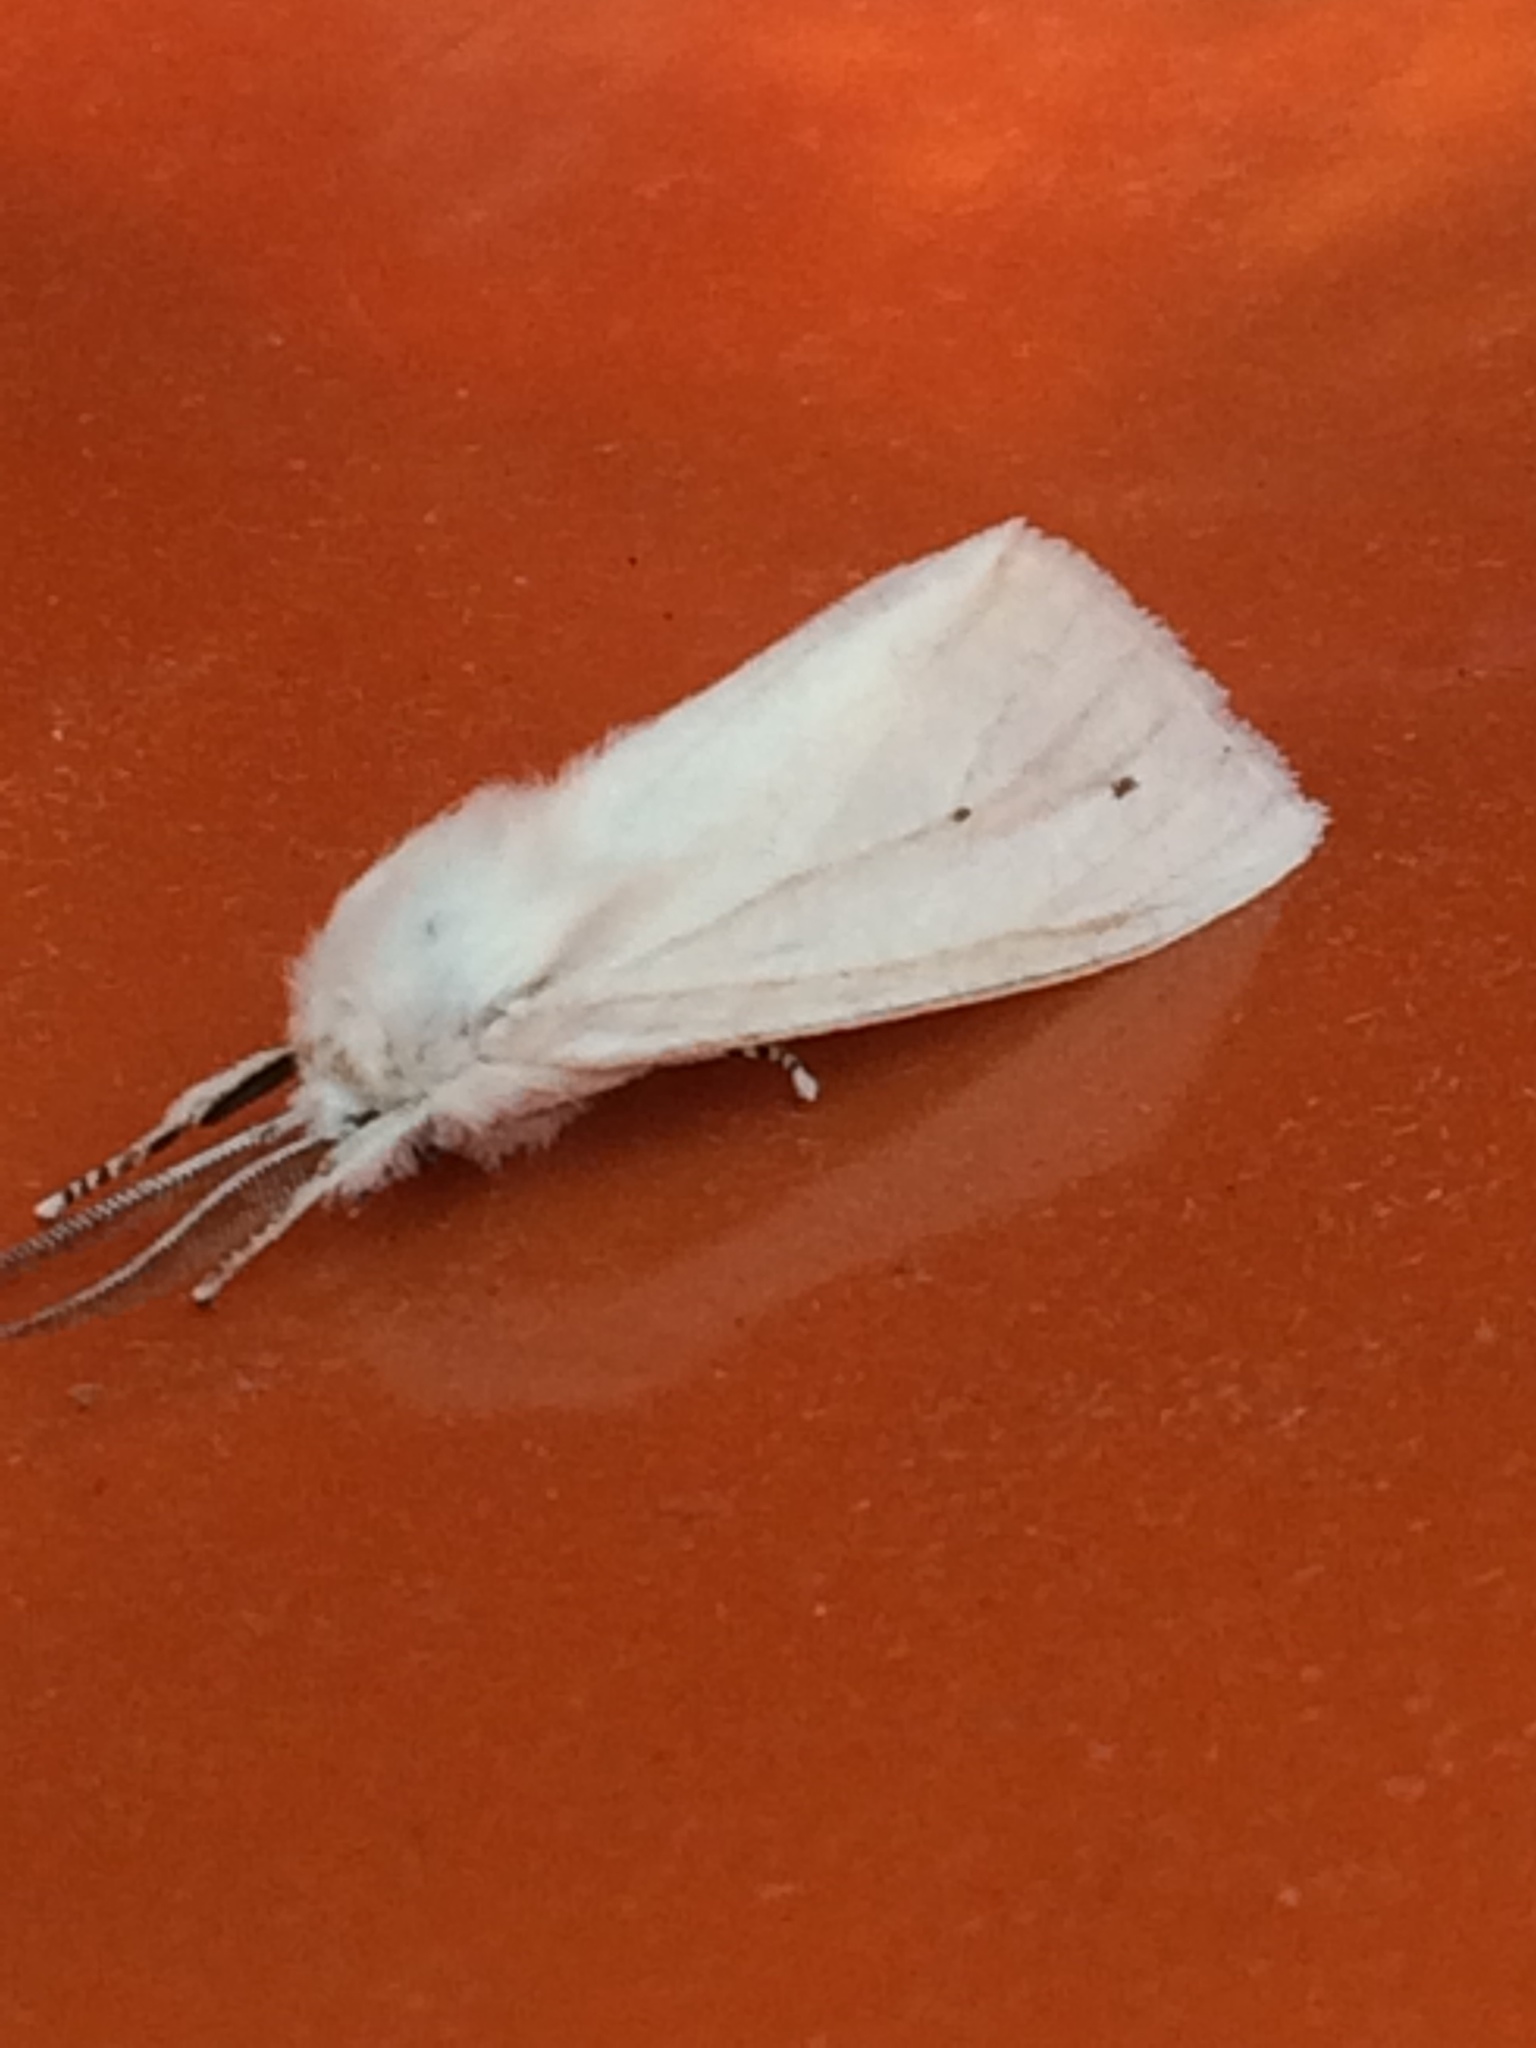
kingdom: Animalia
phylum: Arthropoda
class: Insecta
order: Lepidoptera
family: Erebidae
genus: Spilosoma
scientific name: Spilosoma virginica
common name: Virginia tiger moth
